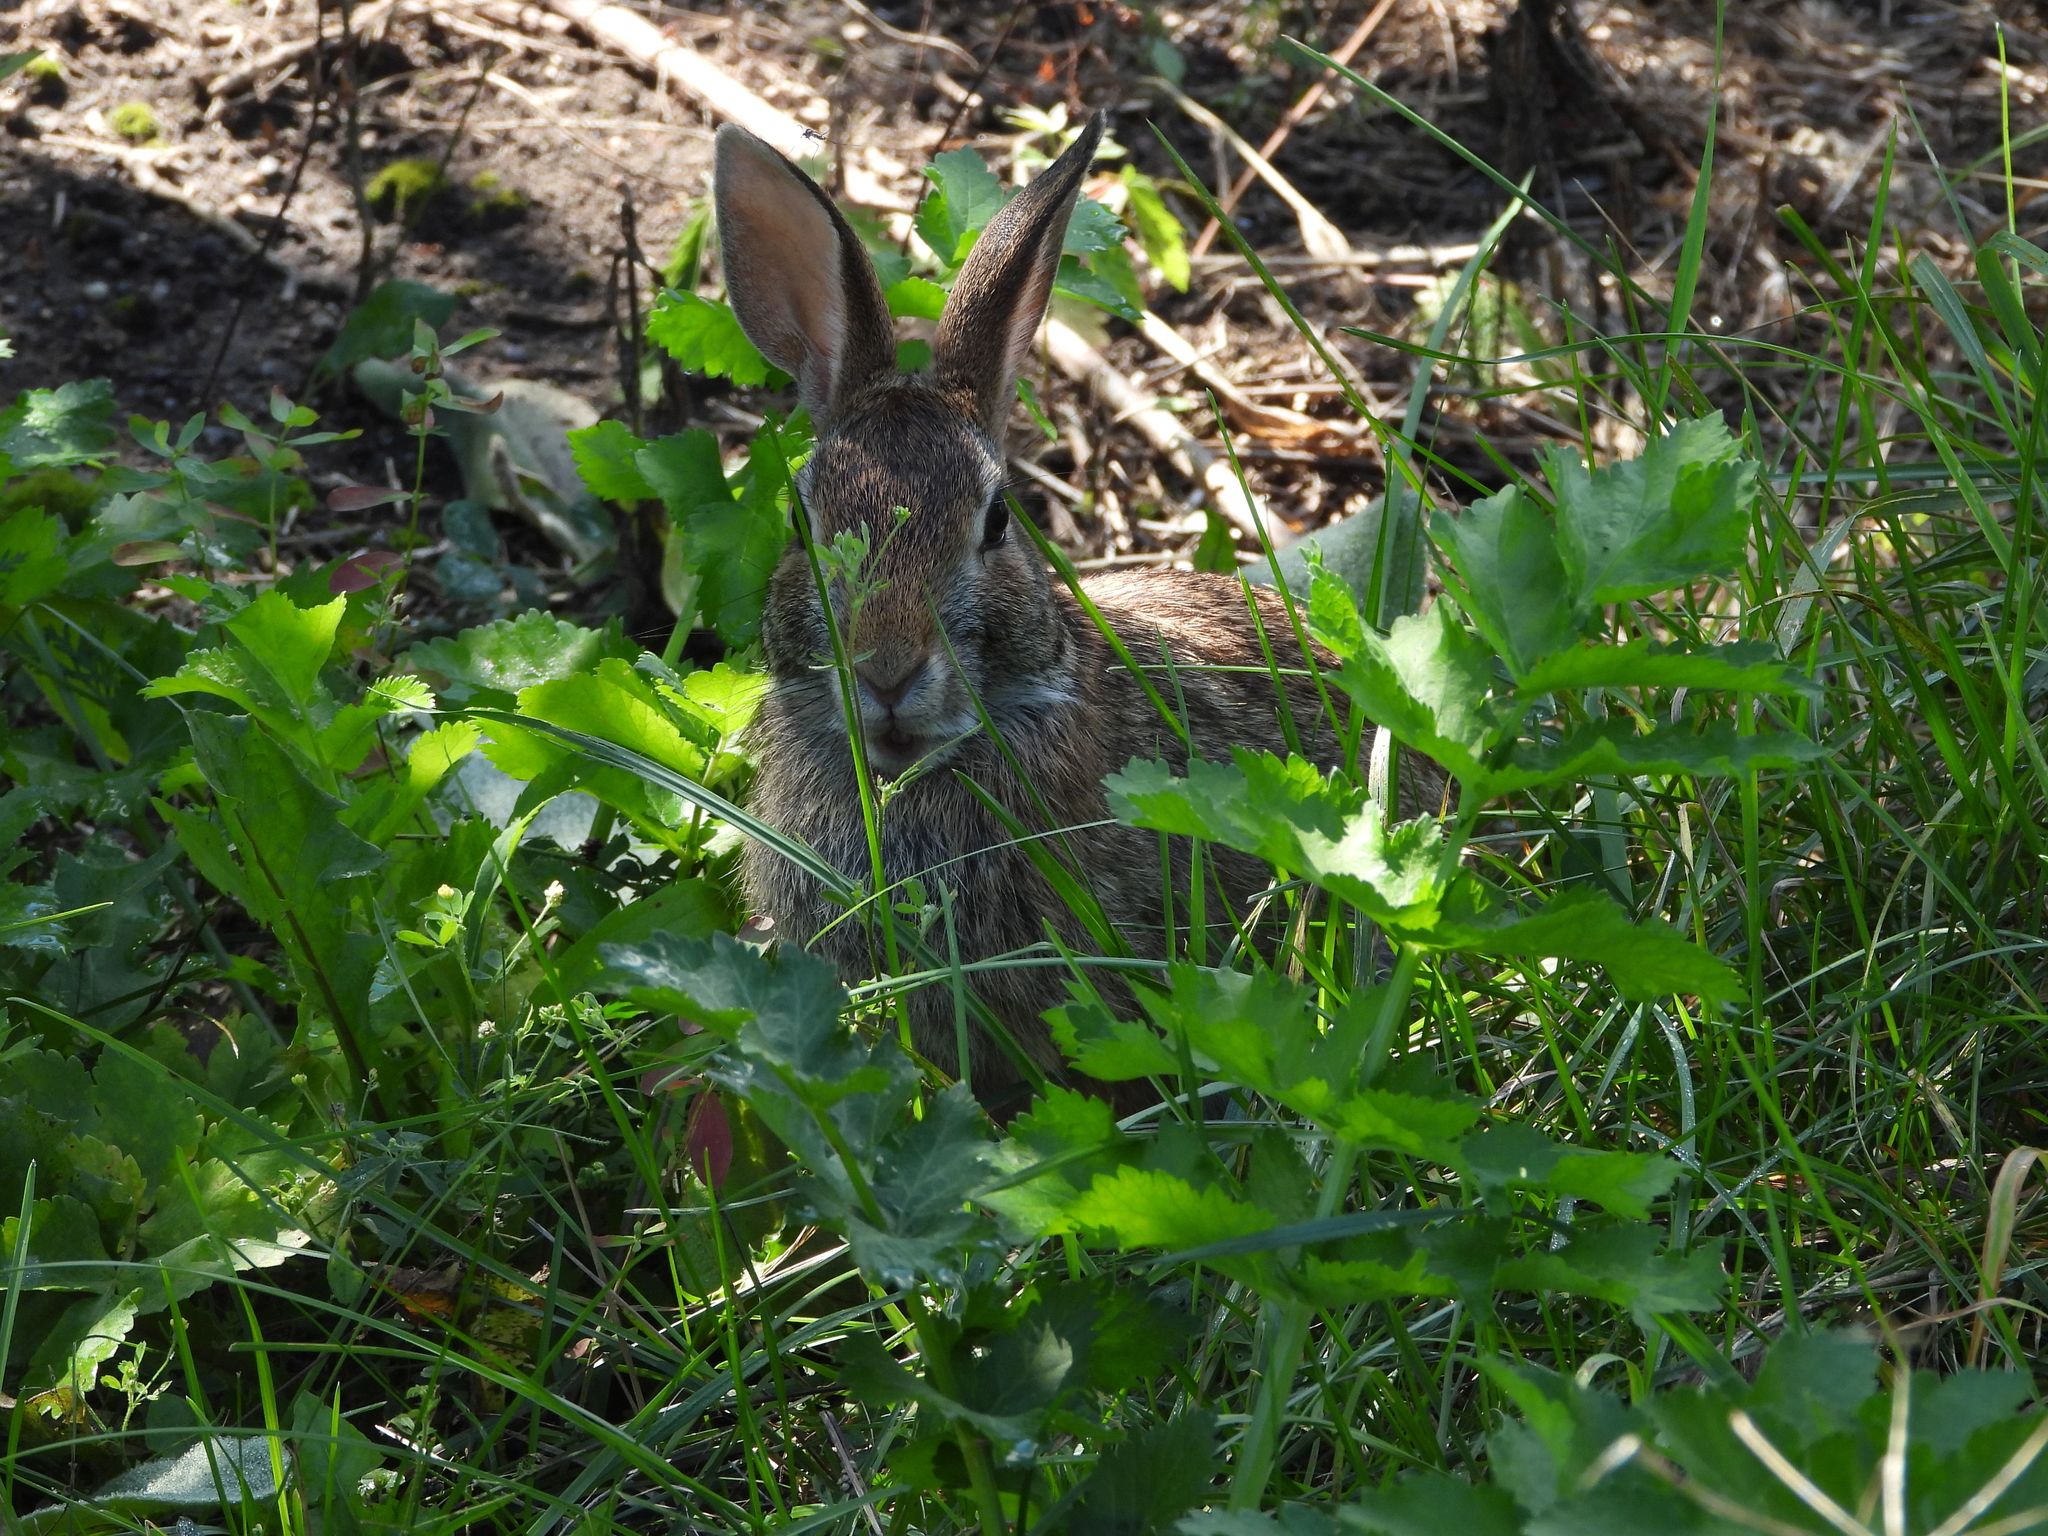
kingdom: Animalia
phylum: Chordata
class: Mammalia
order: Lagomorpha
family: Leporidae
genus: Sylvilagus
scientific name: Sylvilagus floridanus
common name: Eastern cottontail
